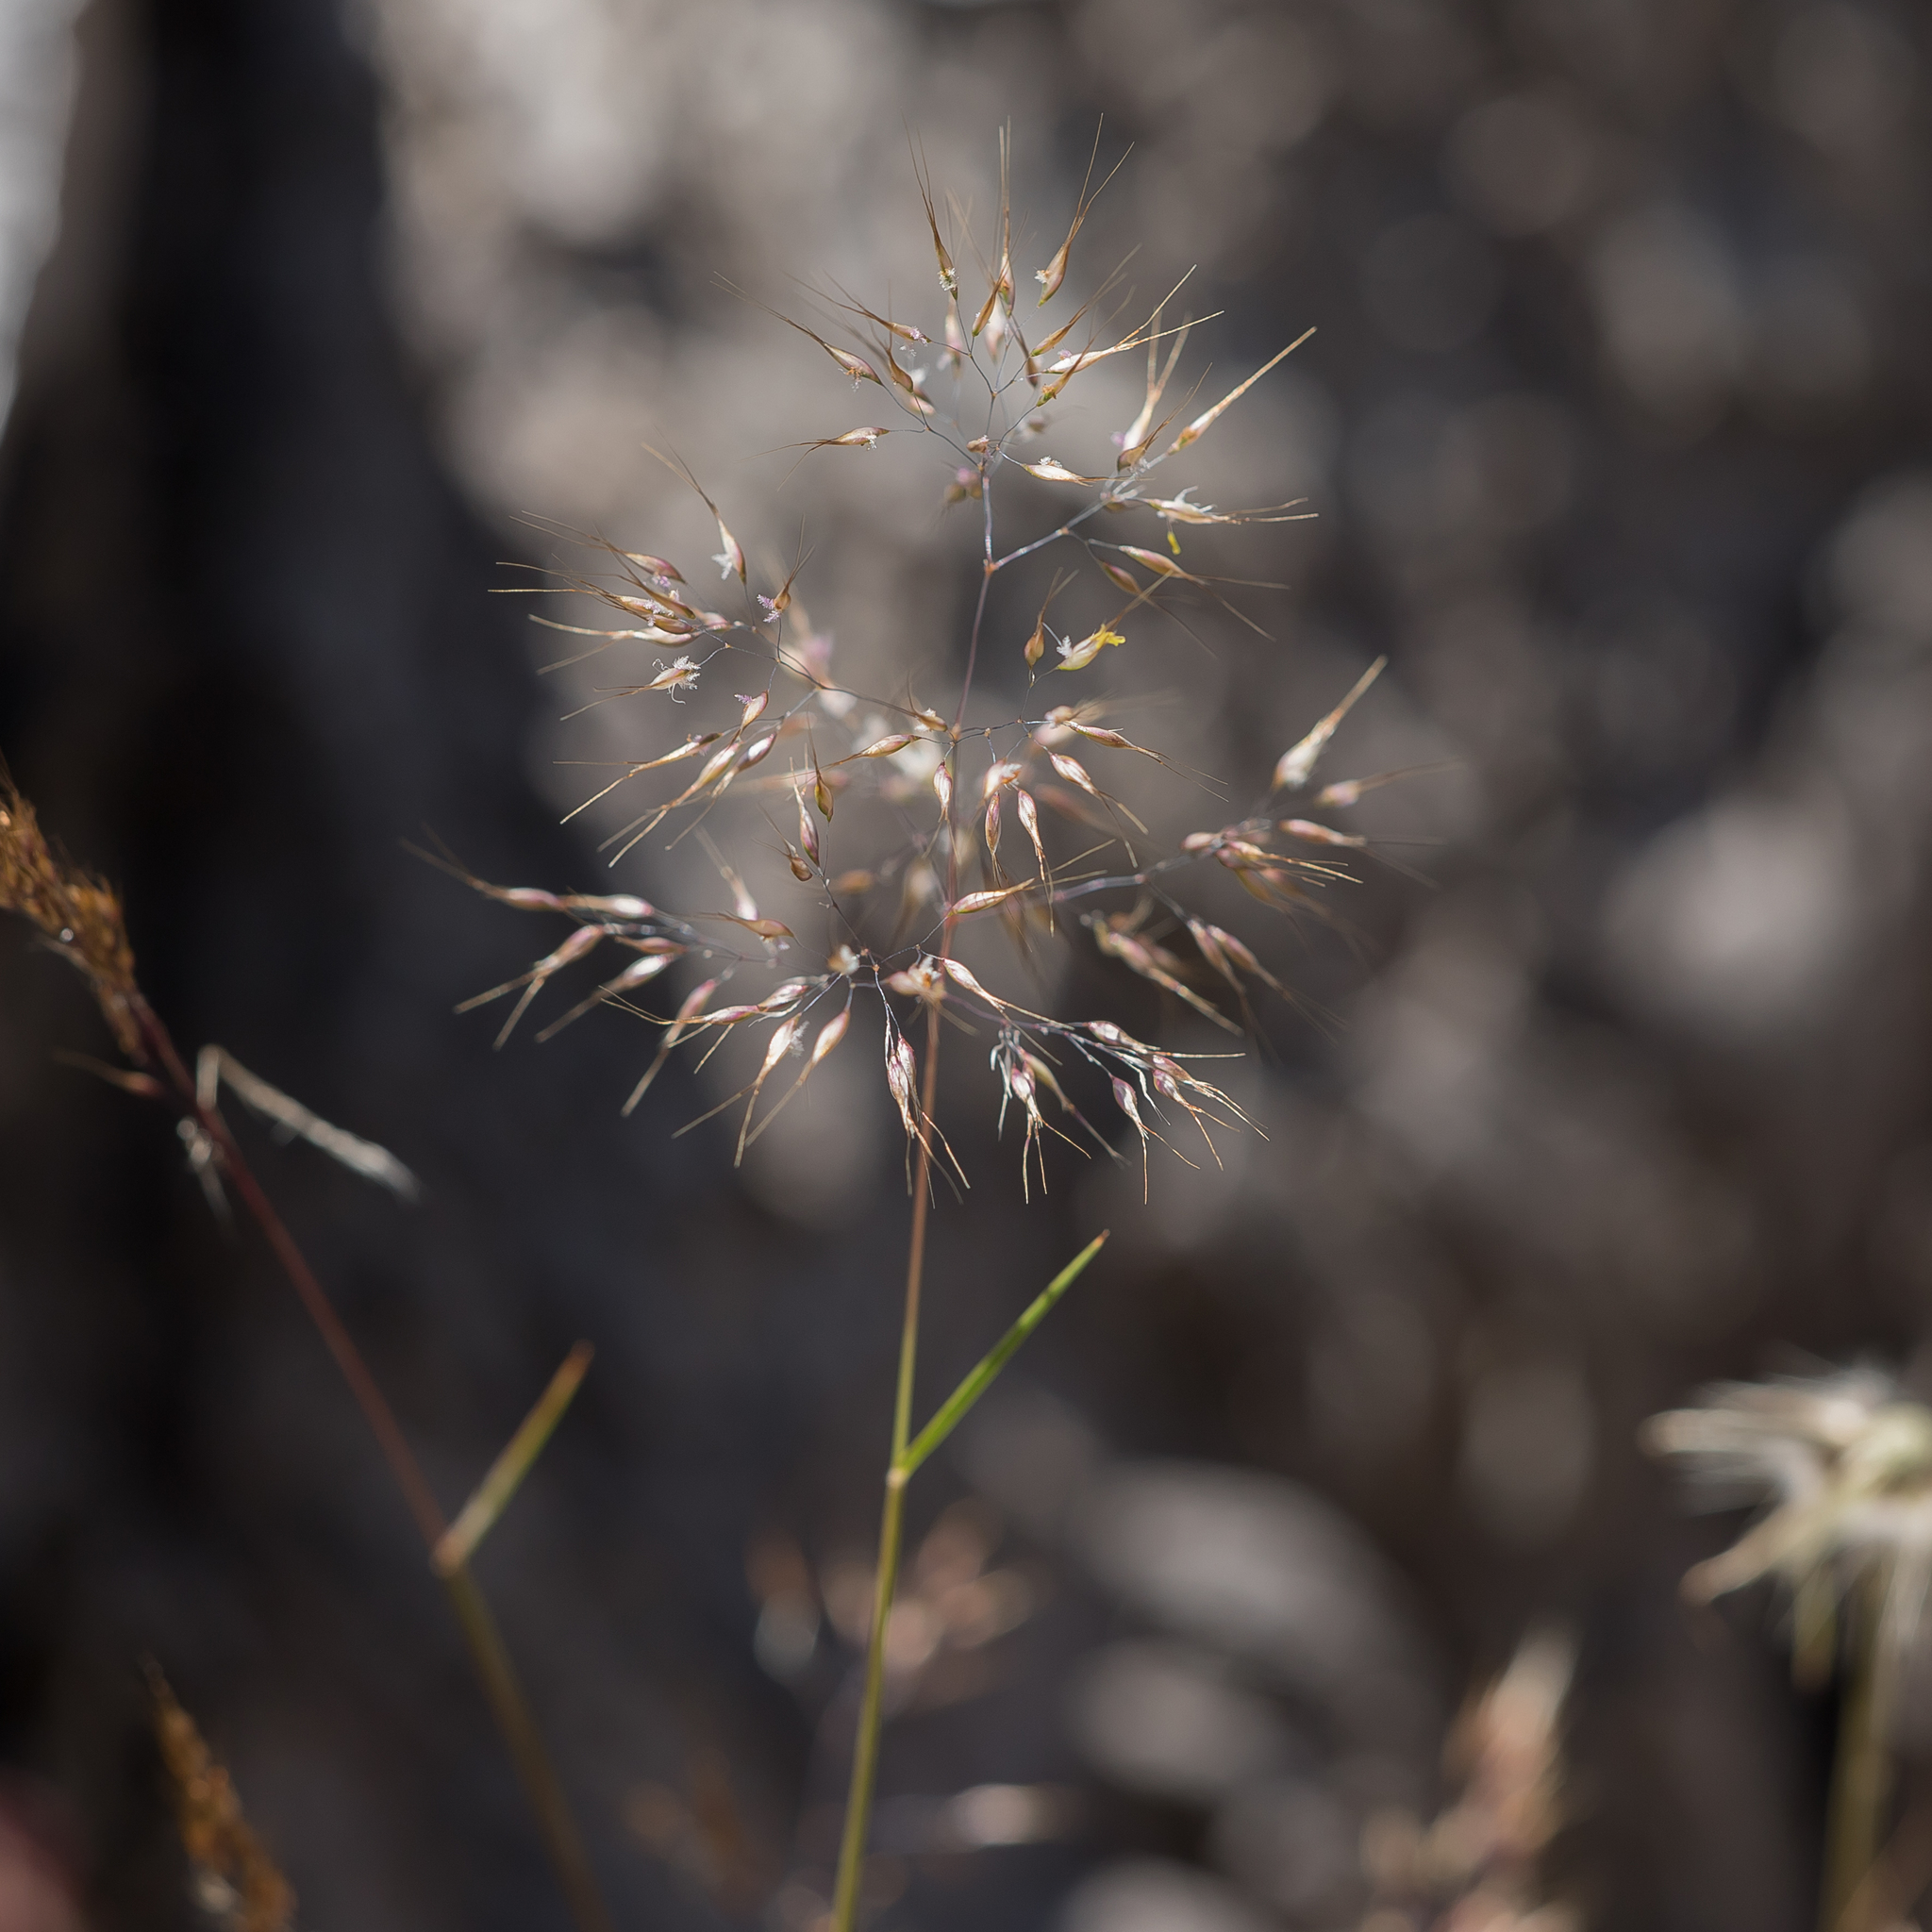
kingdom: Plantae
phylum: Tracheophyta
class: Liliopsida
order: Poales
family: Poaceae
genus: Pentameris
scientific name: Pentameris pallida
